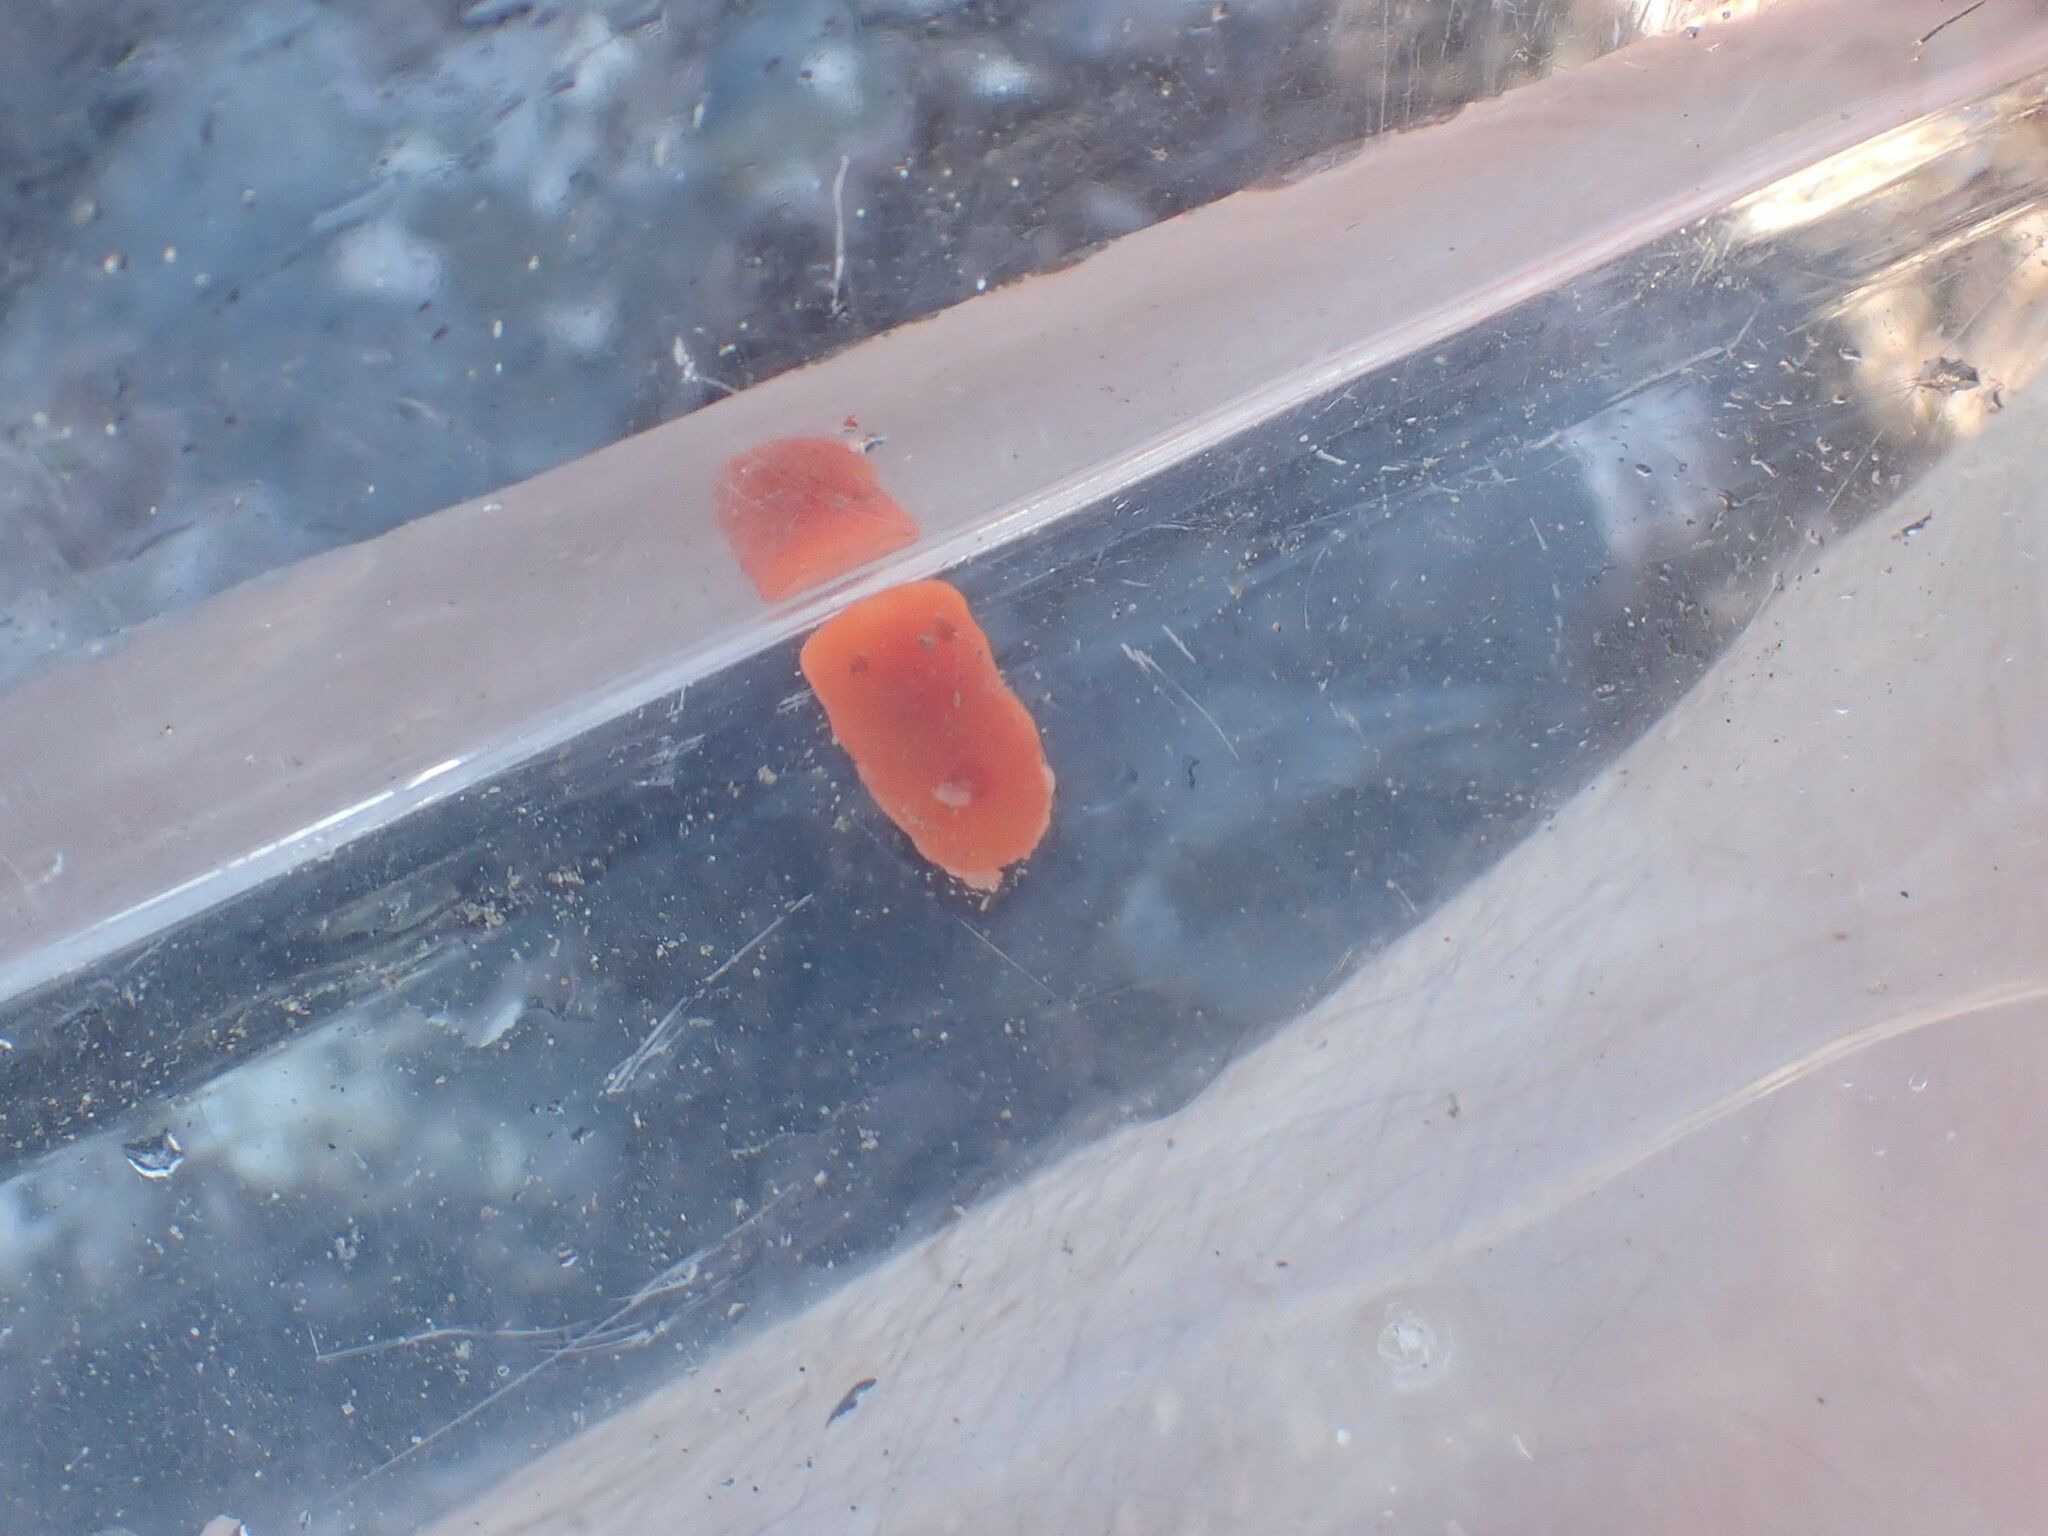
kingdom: Animalia
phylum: Mollusca
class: Gastropoda
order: Nudibranchia
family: Discodorididae
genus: Rostanga
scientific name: Rostanga pulchra
